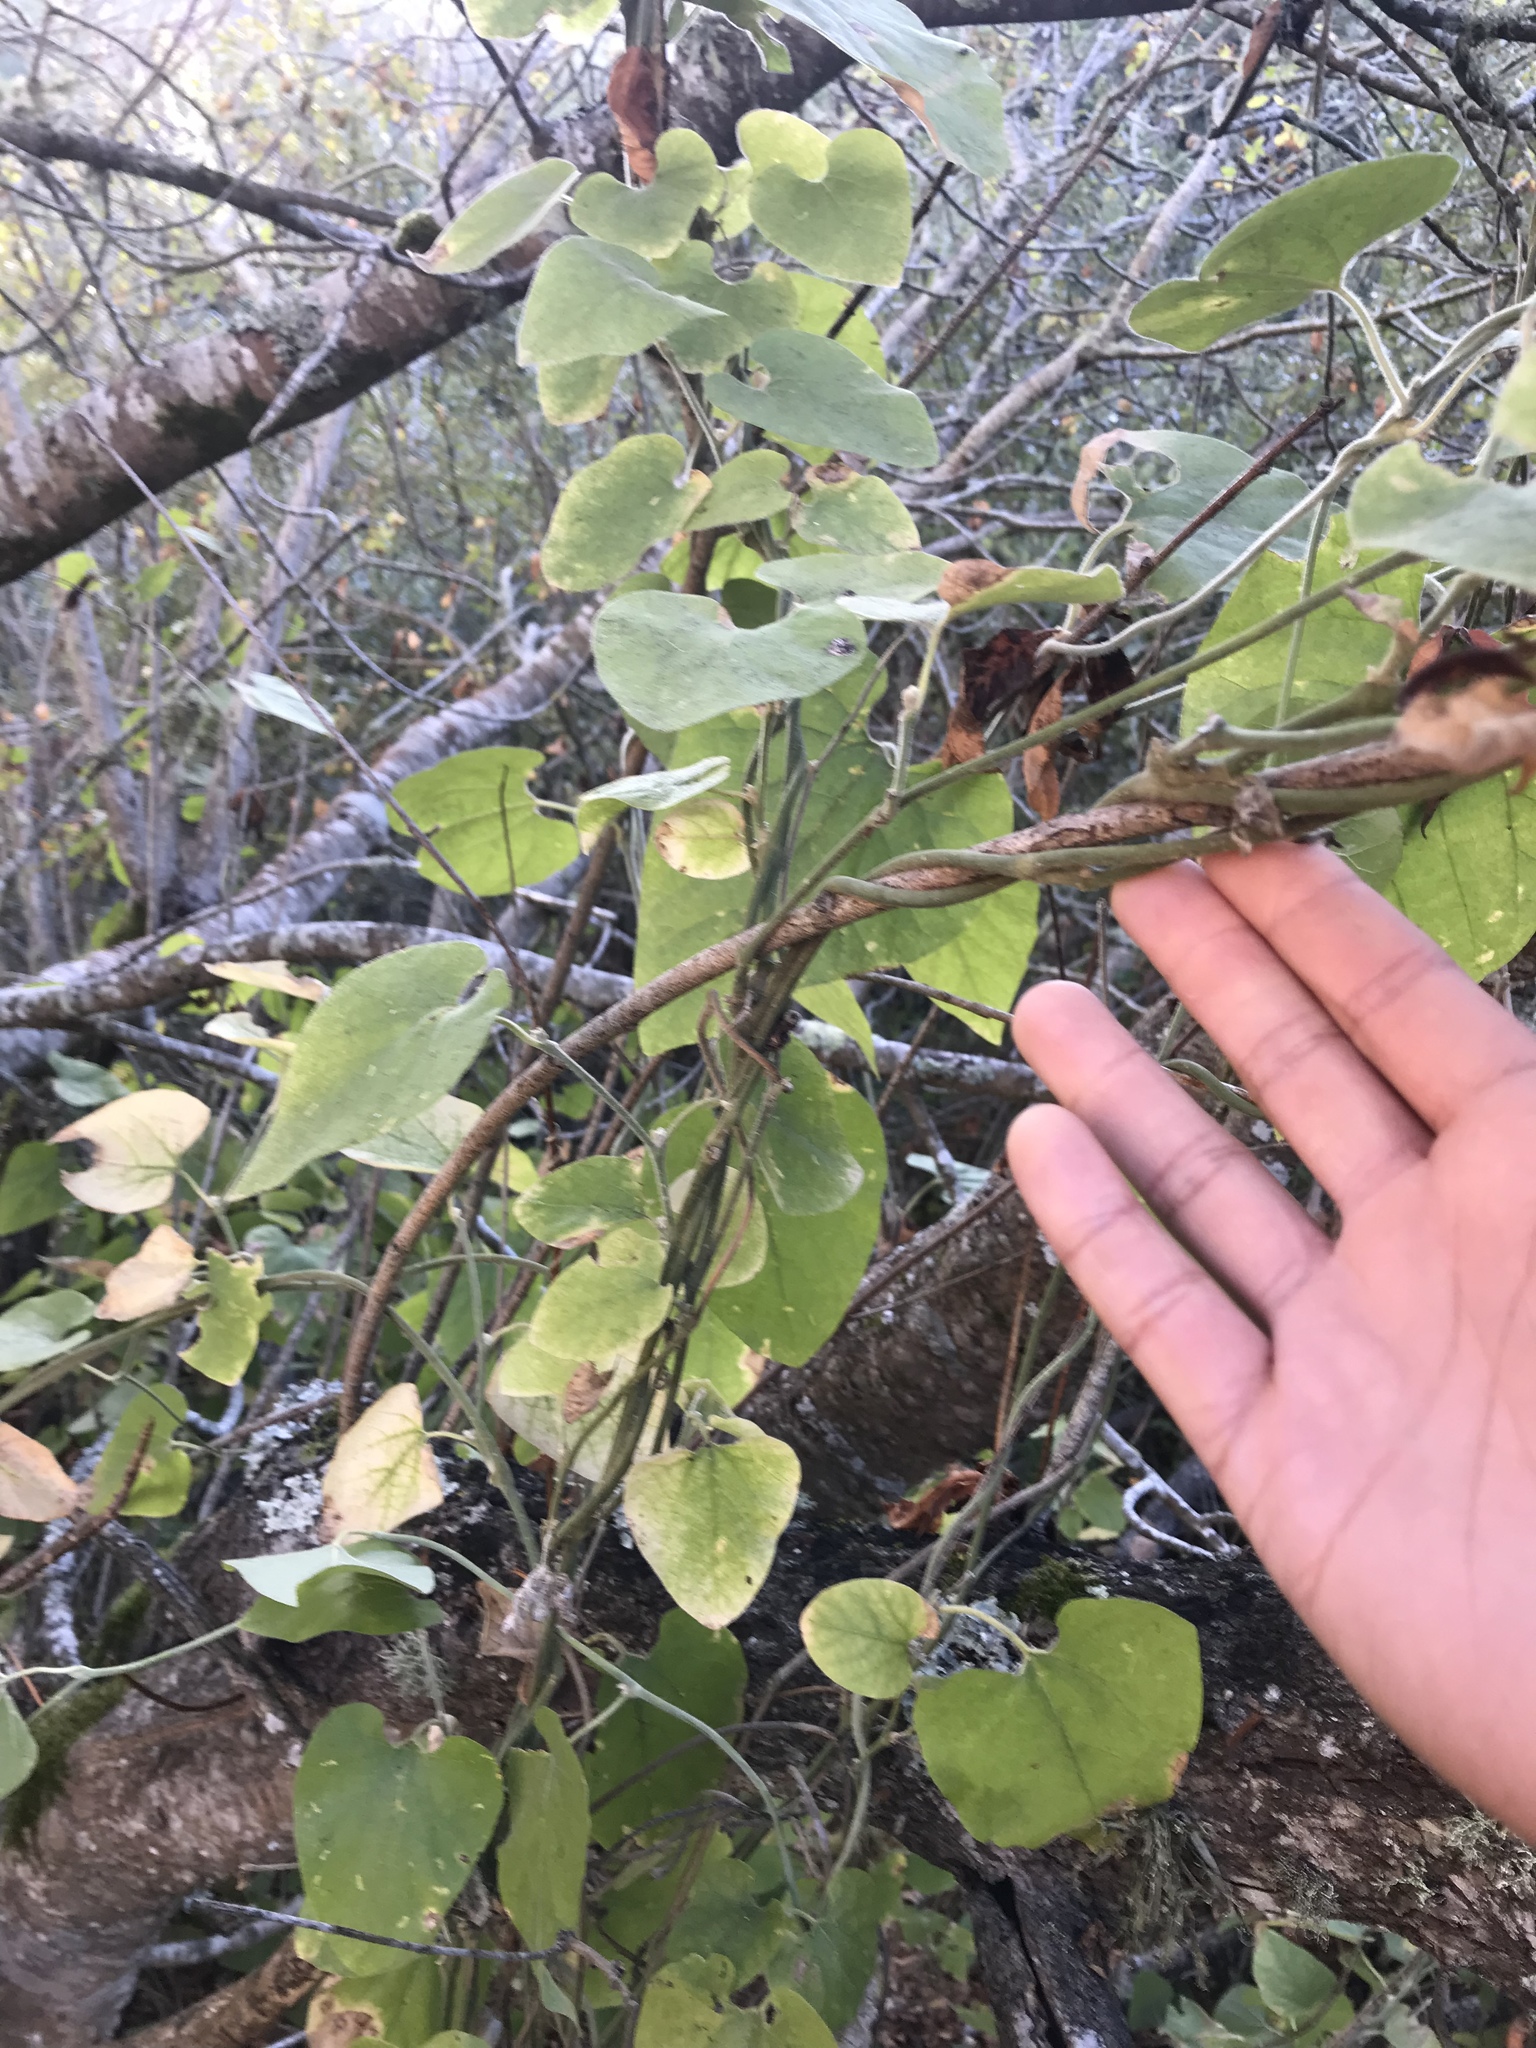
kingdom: Plantae
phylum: Tracheophyta
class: Magnoliopsida
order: Piperales
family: Aristolochiaceae
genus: Isotrema
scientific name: Isotrema californicum
